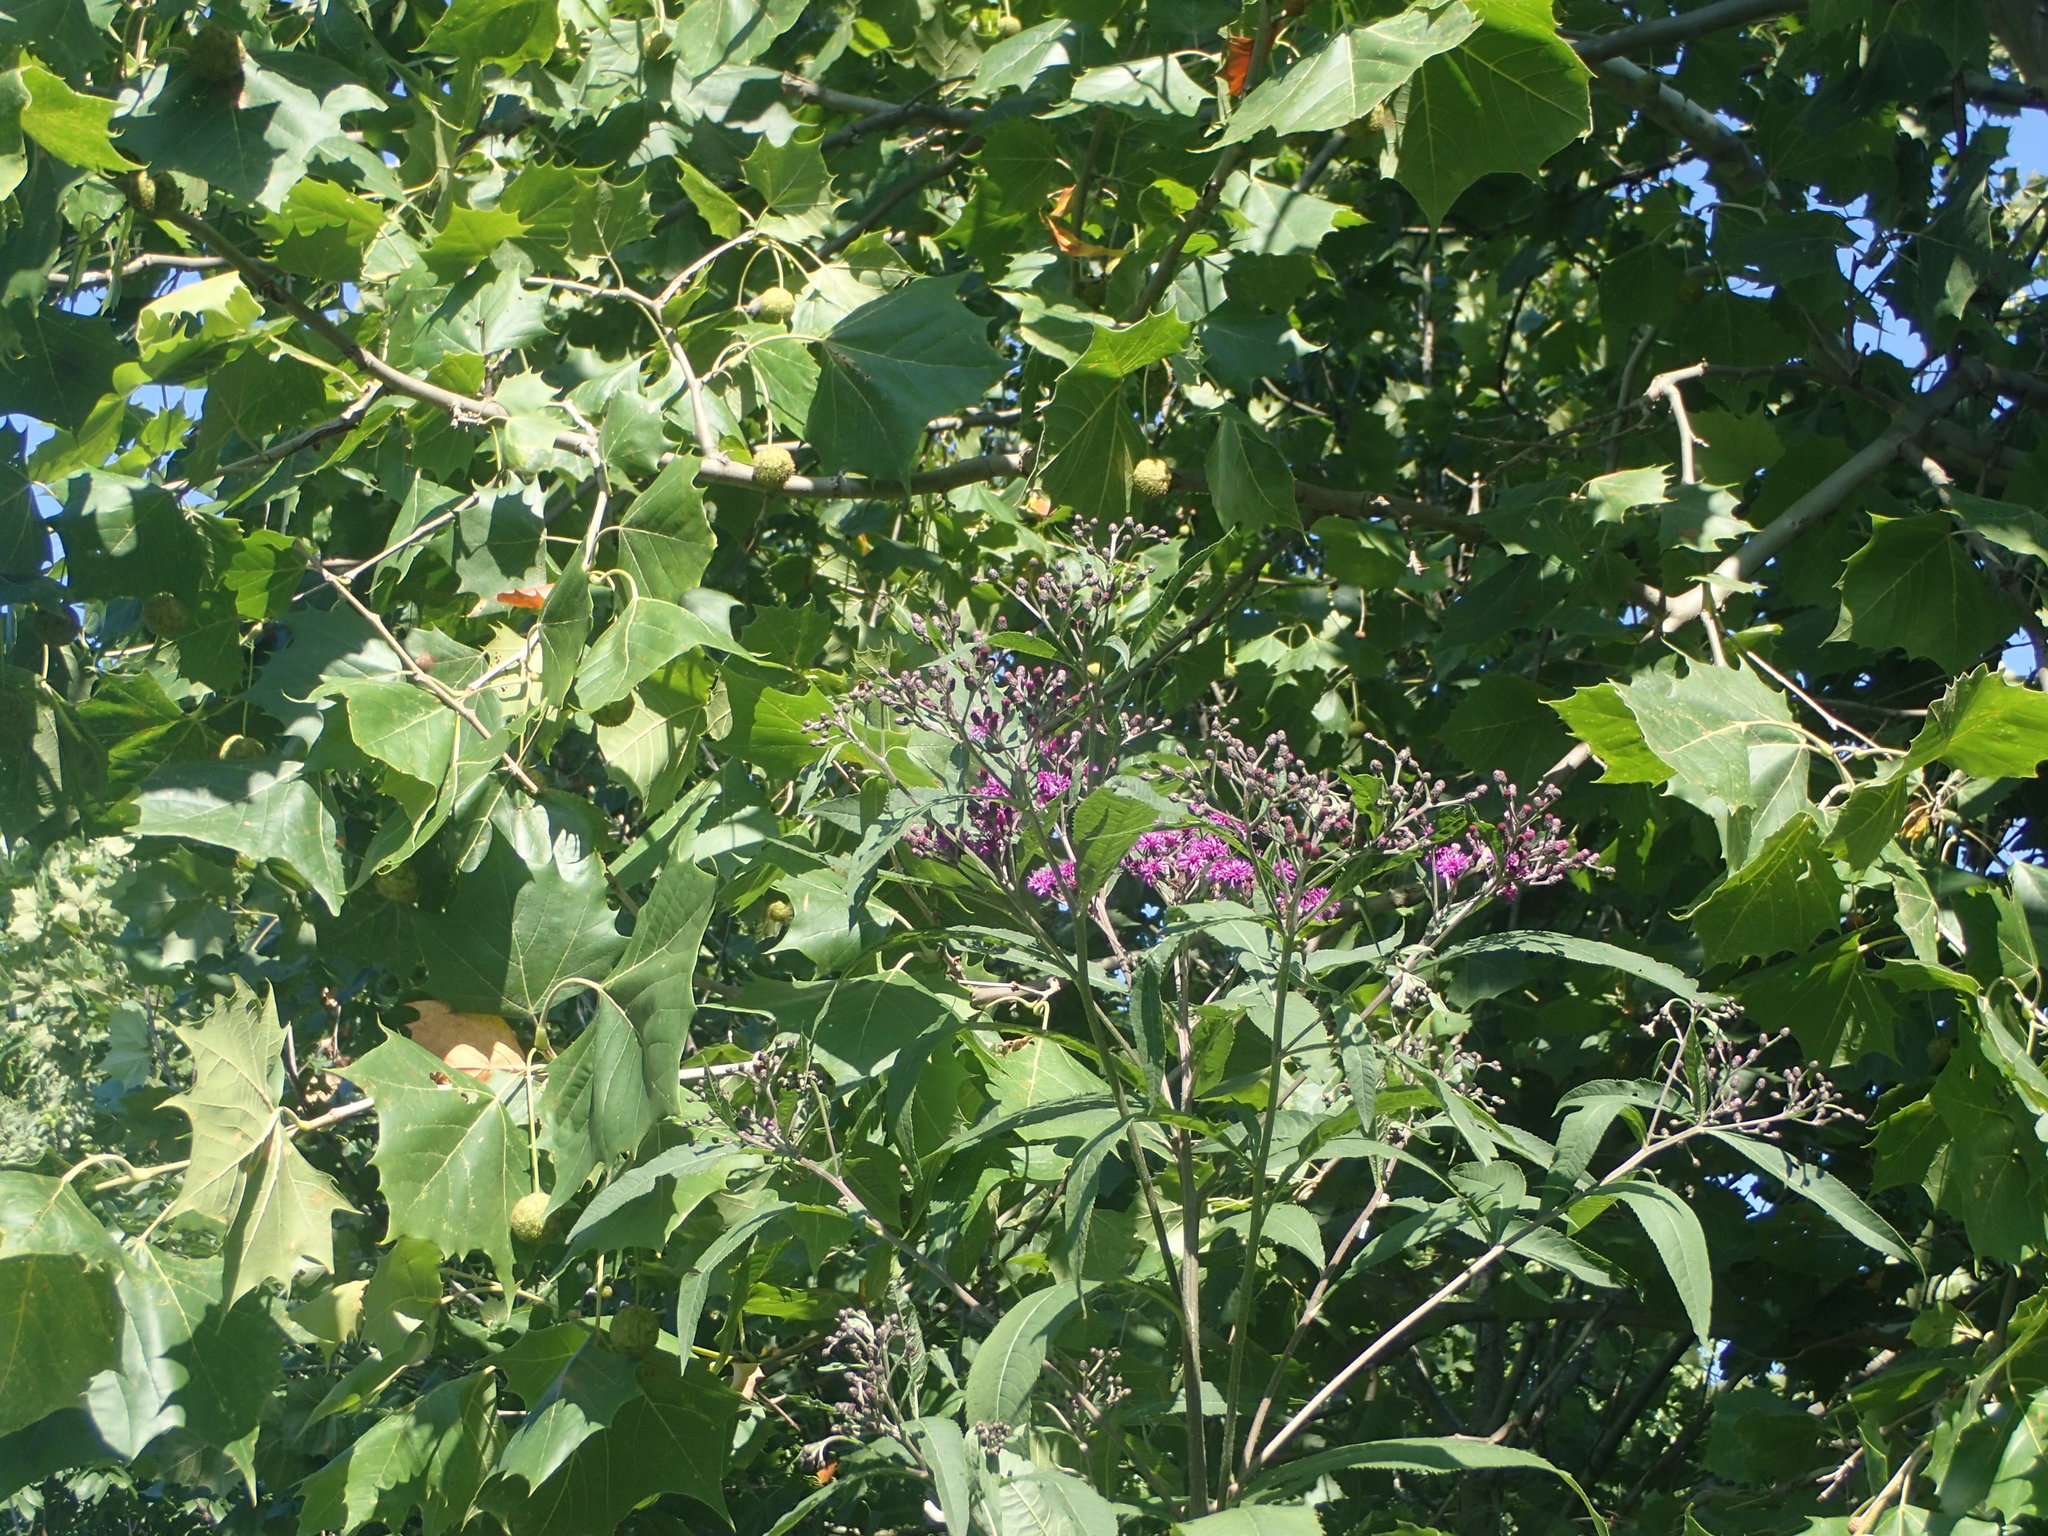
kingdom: Plantae
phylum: Tracheophyta
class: Magnoliopsida
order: Asterales
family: Asteraceae
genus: Vernonia
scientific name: Vernonia gigantea
